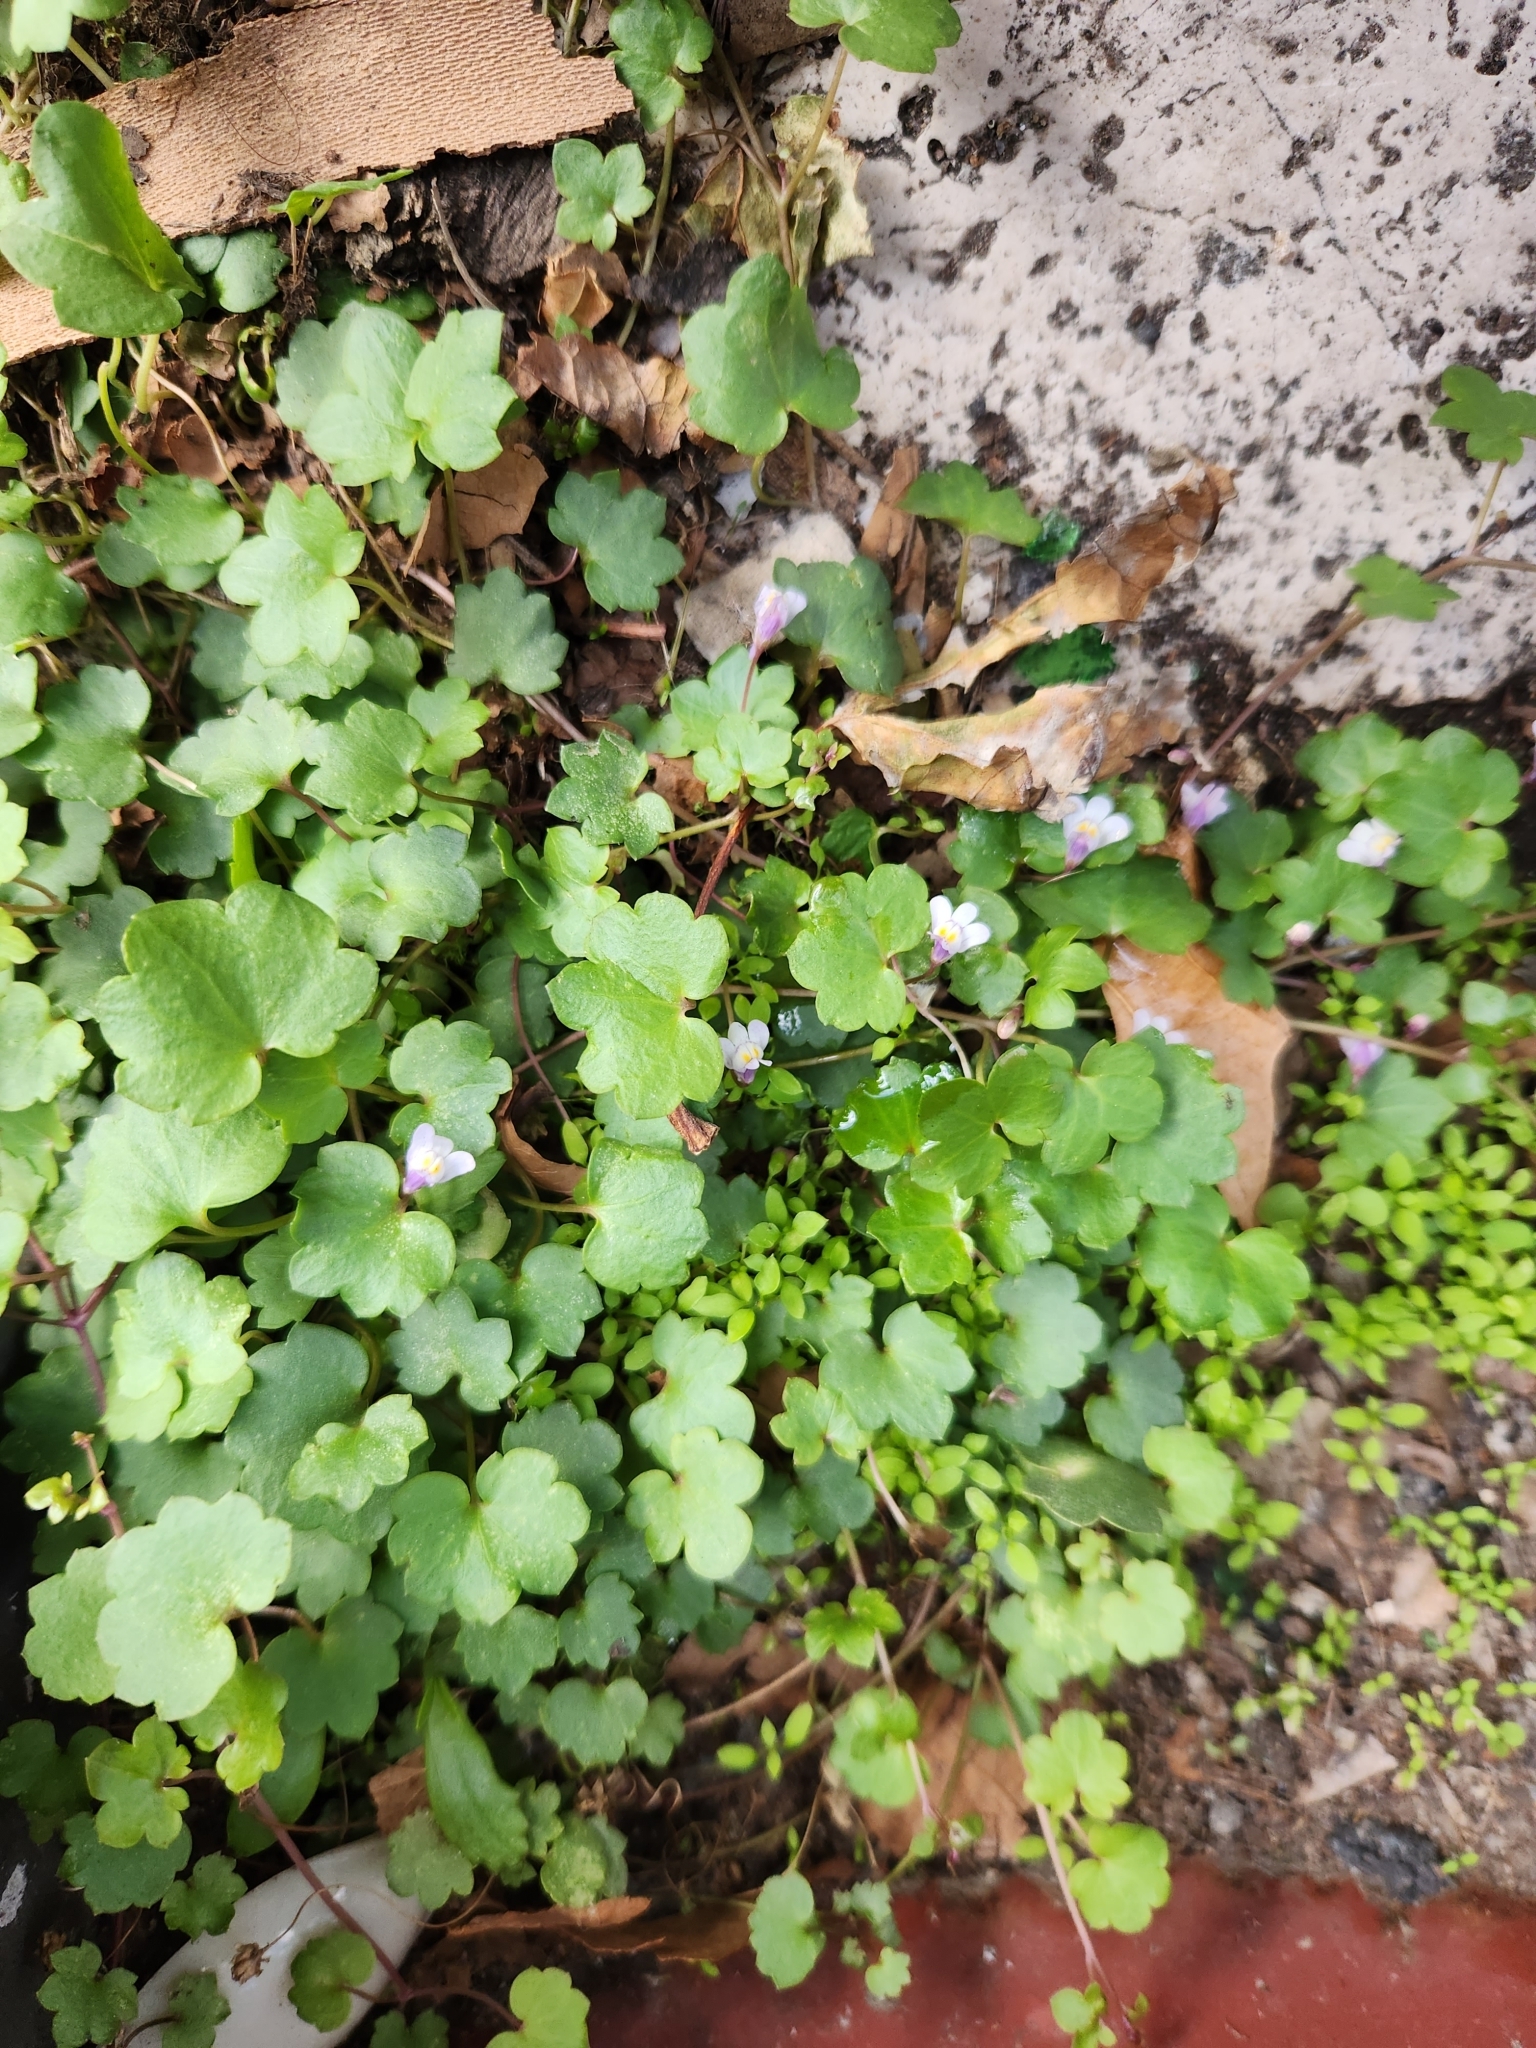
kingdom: Plantae
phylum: Tracheophyta
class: Magnoliopsida
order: Lamiales
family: Plantaginaceae
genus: Cymbalaria
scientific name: Cymbalaria muralis
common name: Ivy-leaved toadflax
